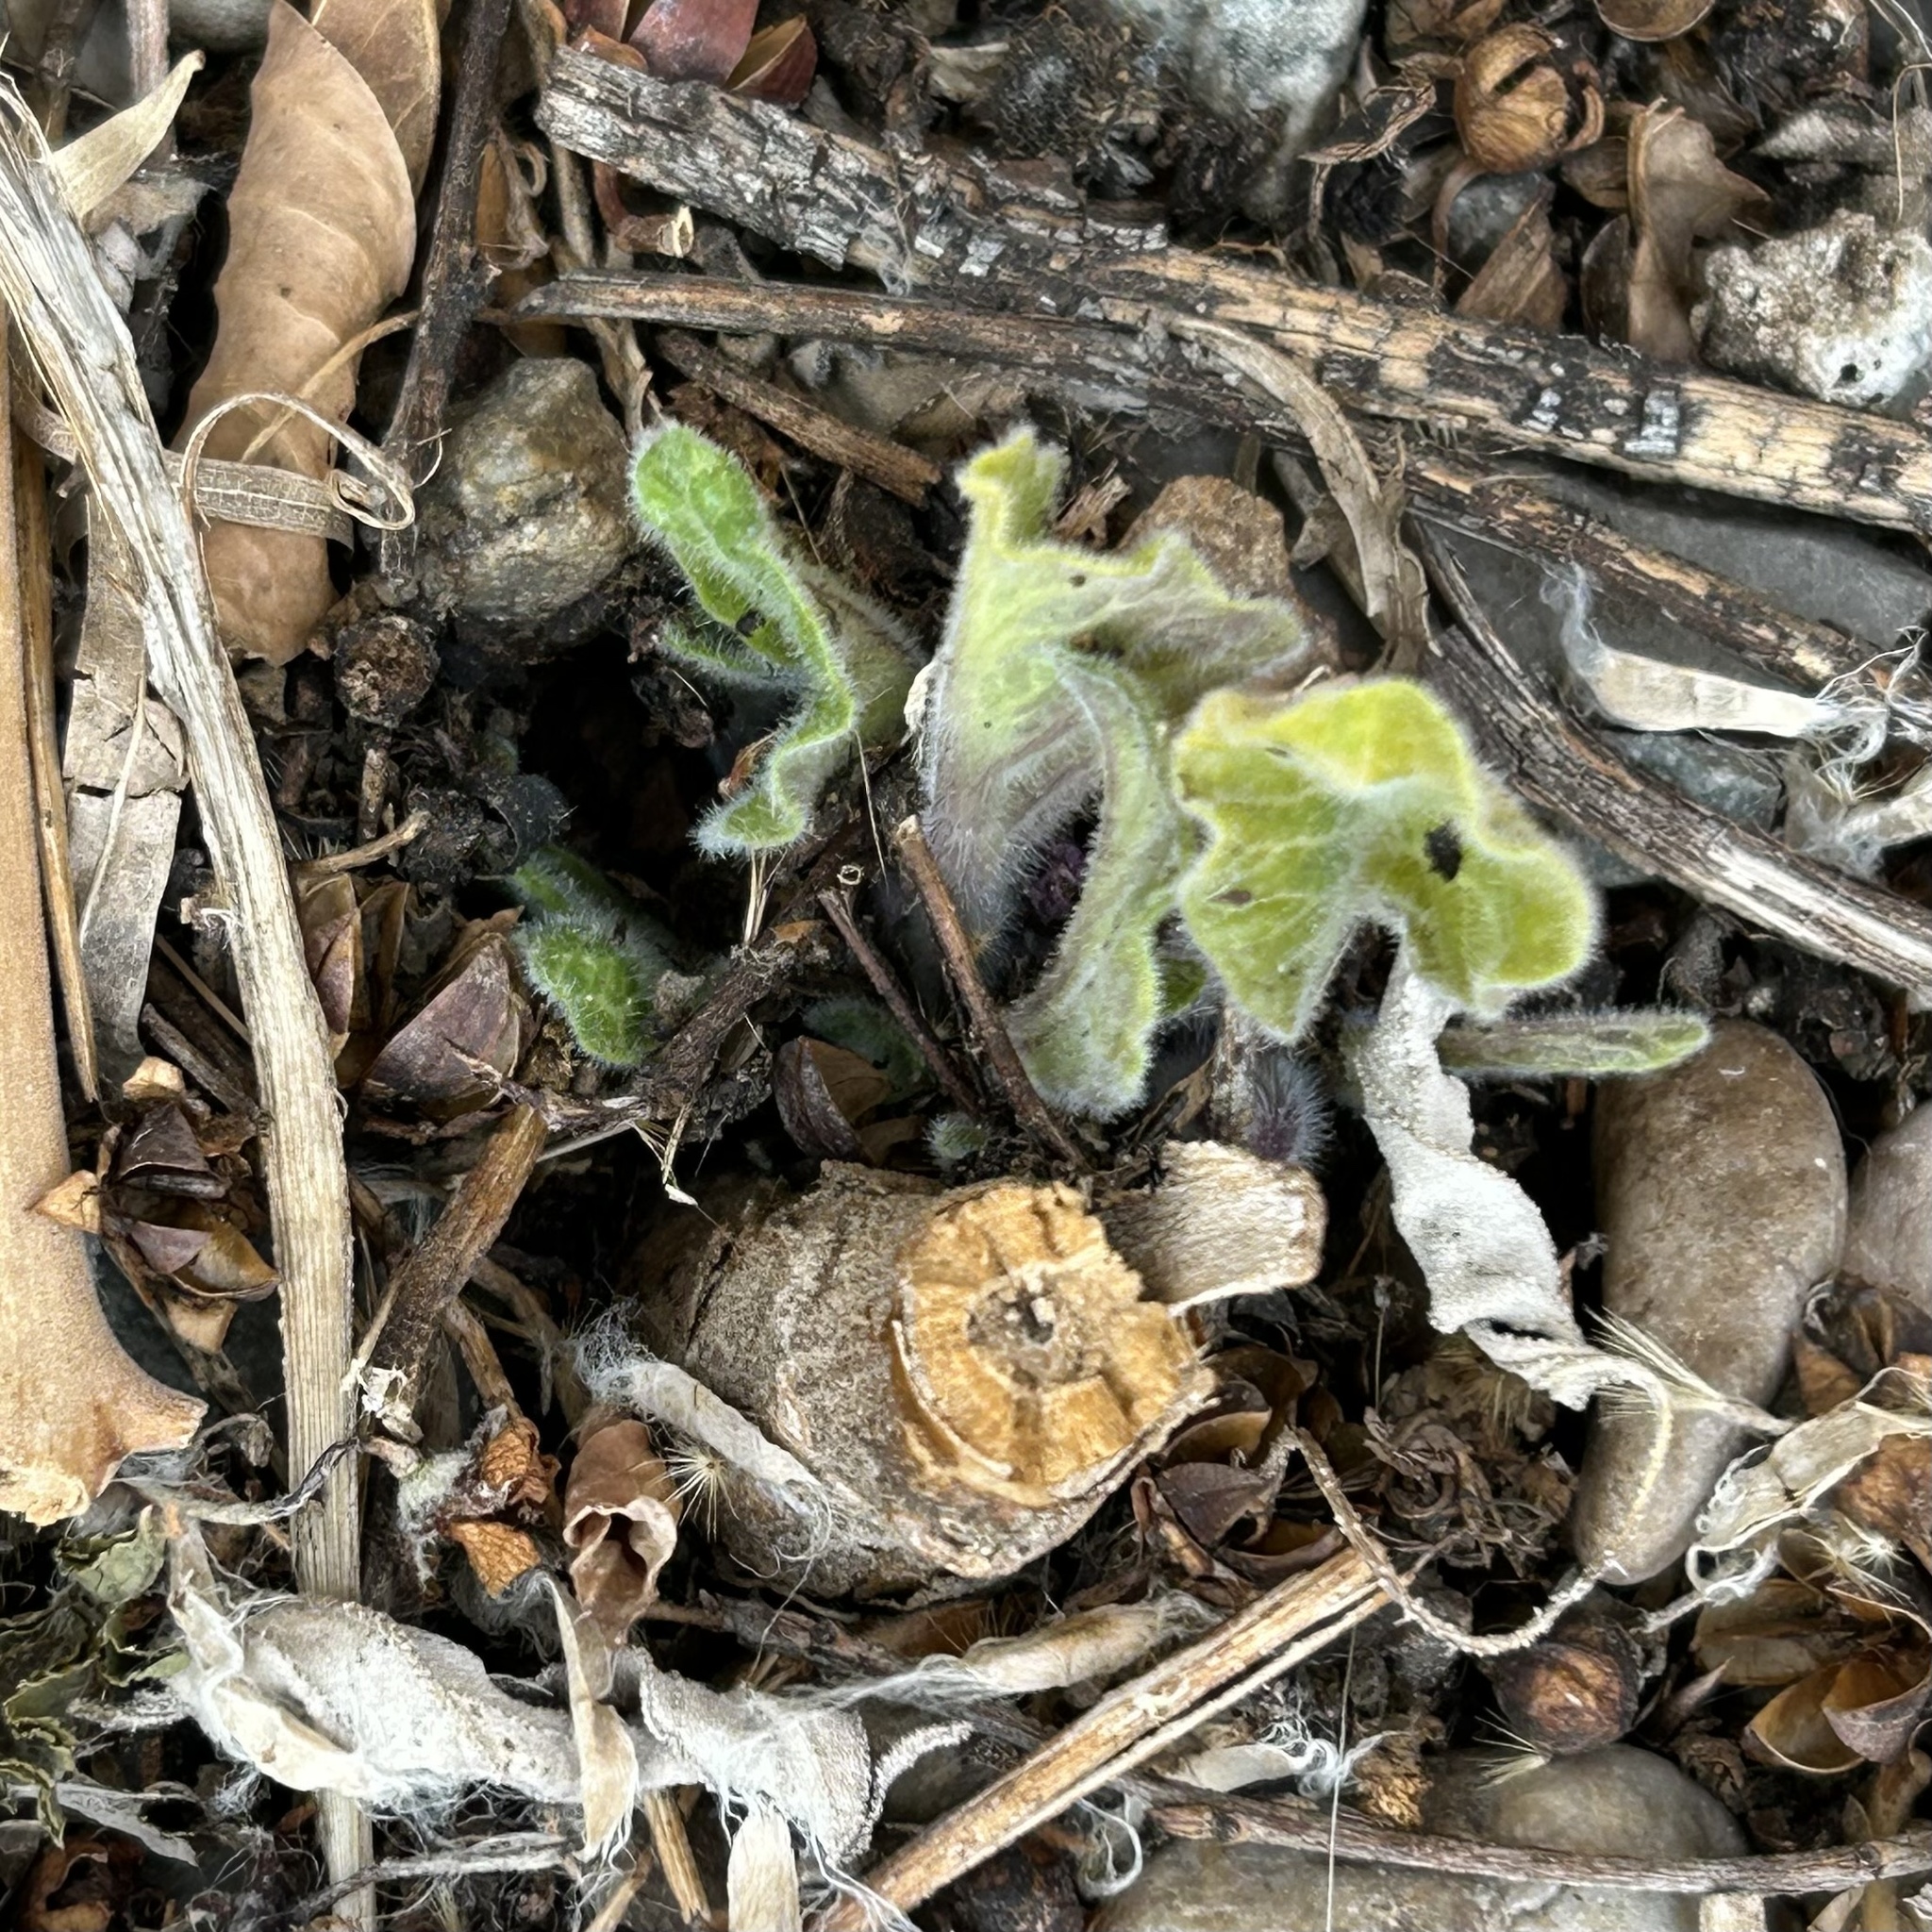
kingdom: Plantae
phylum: Tracheophyta
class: Magnoliopsida
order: Solanales
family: Solanaceae
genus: Datura
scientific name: Datura wrightii
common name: Sacred thorn-apple
